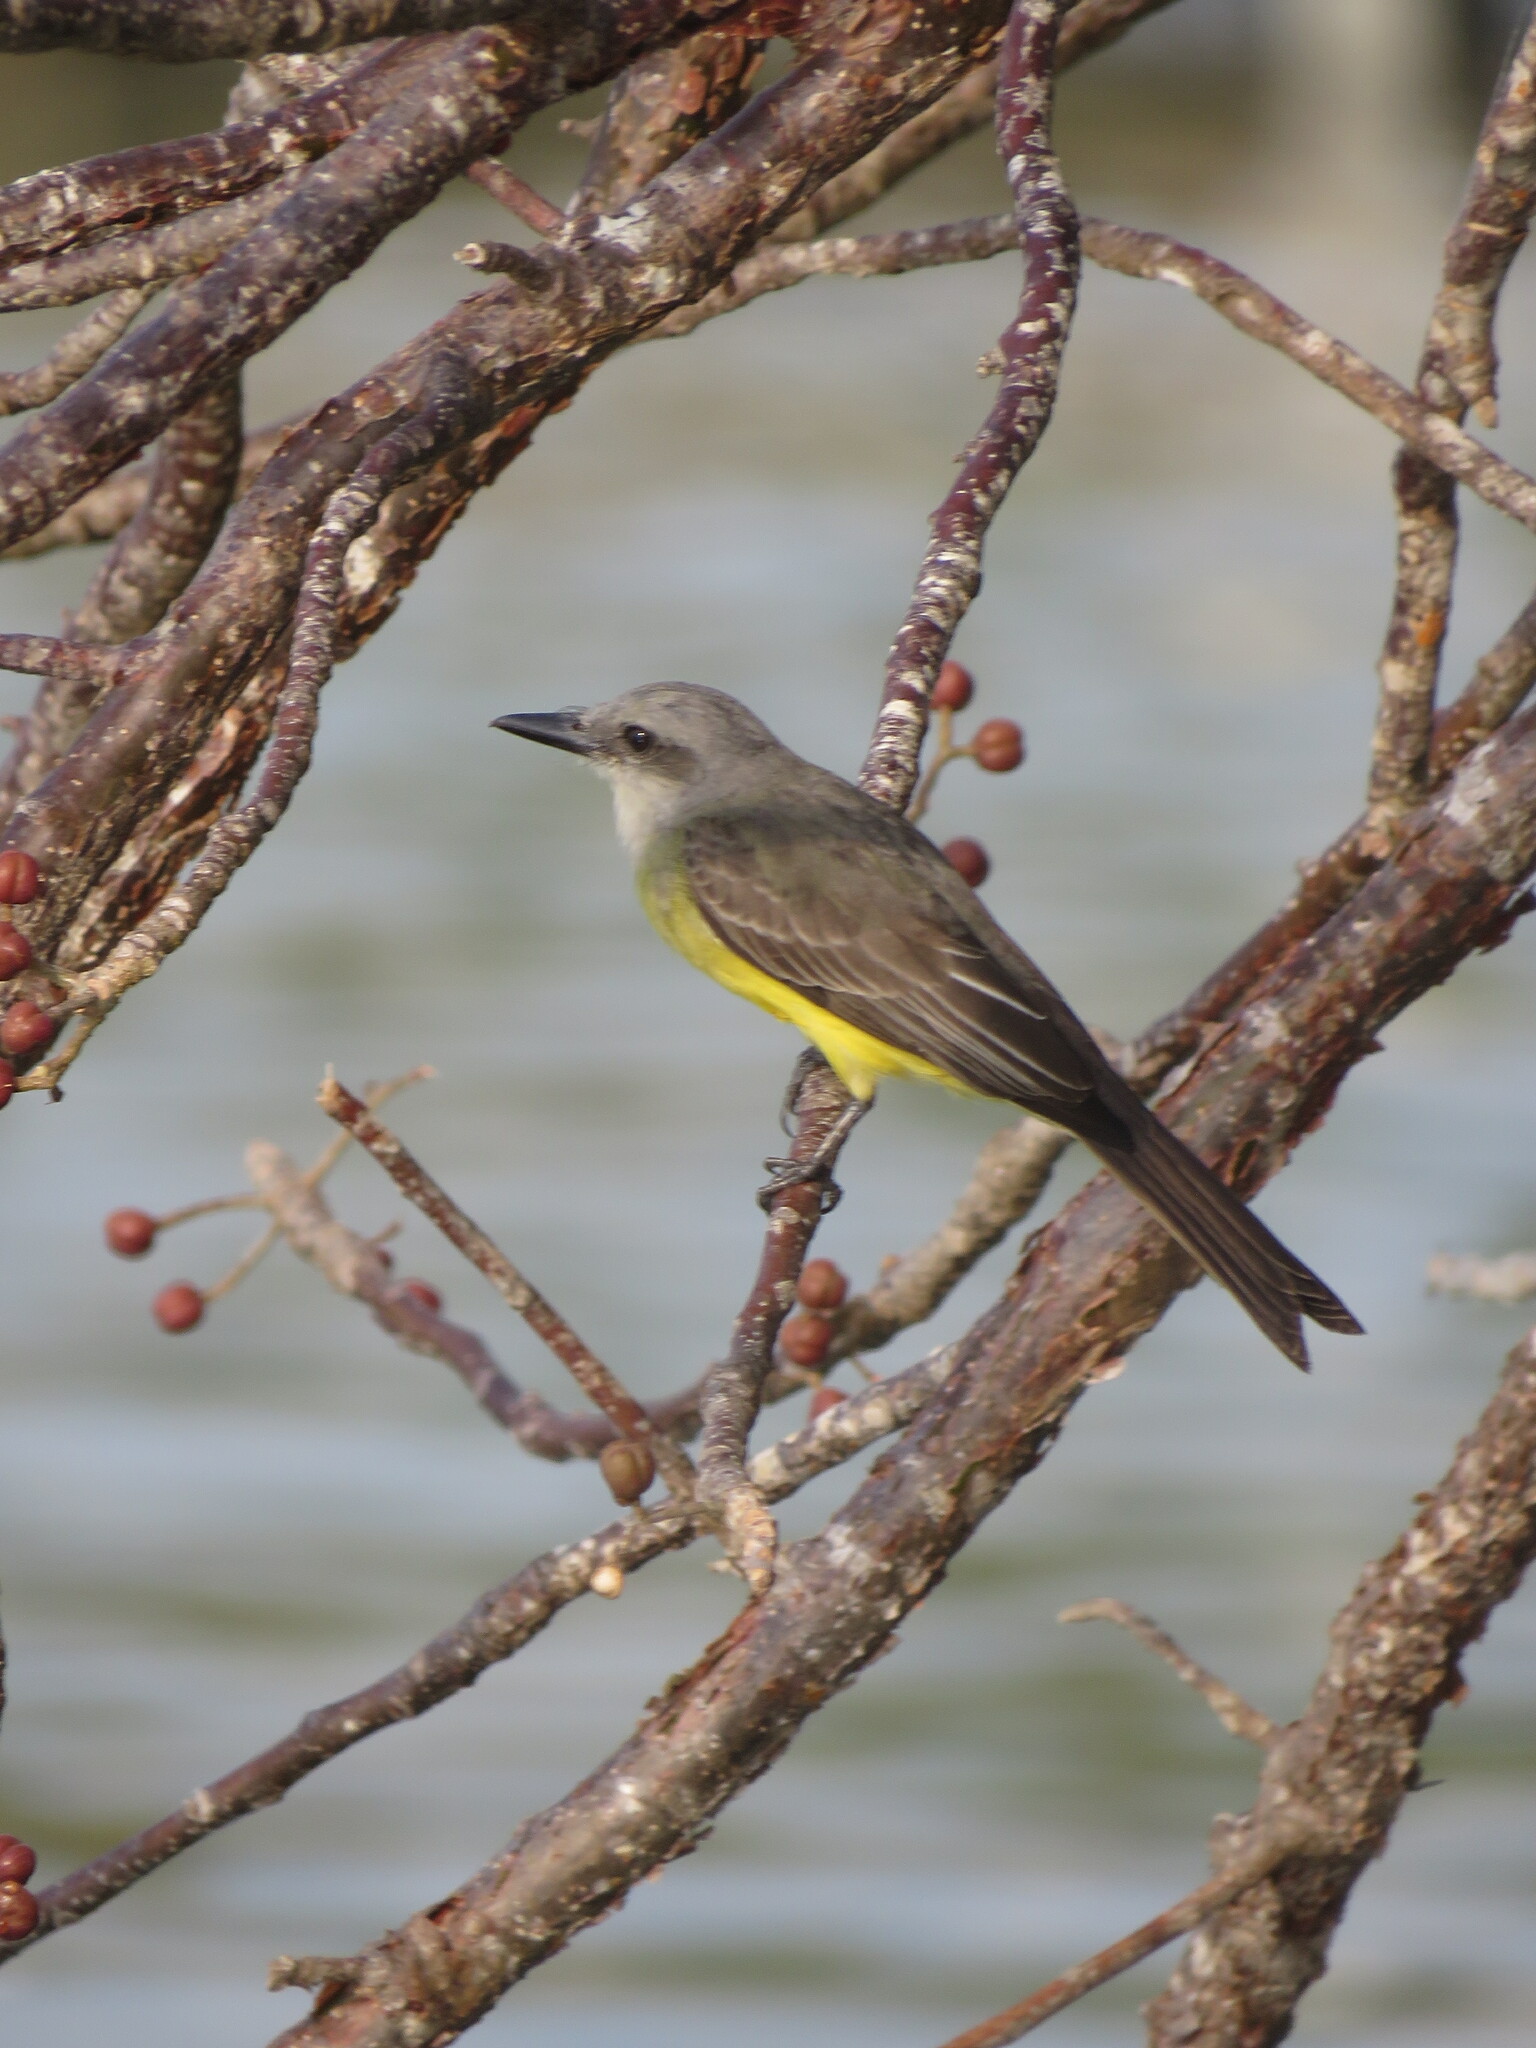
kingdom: Animalia
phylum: Chordata
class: Aves
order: Passeriformes
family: Tyrannidae
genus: Tyrannus
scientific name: Tyrannus melancholicus
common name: Tropical kingbird
